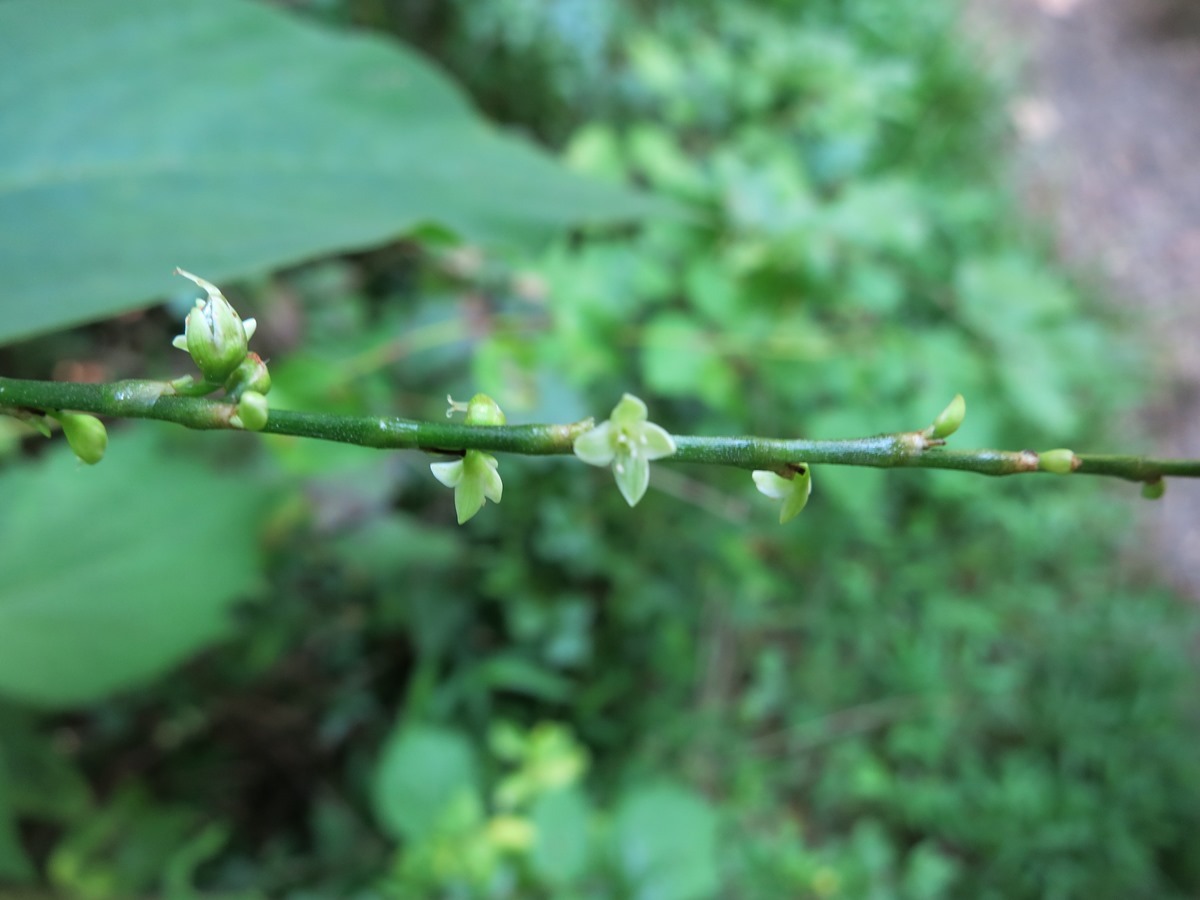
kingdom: Plantae
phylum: Tracheophyta
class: Magnoliopsida
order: Caryophyllales
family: Polygonaceae
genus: Persicaria
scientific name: Persicaria virginiana
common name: Jumpseed
